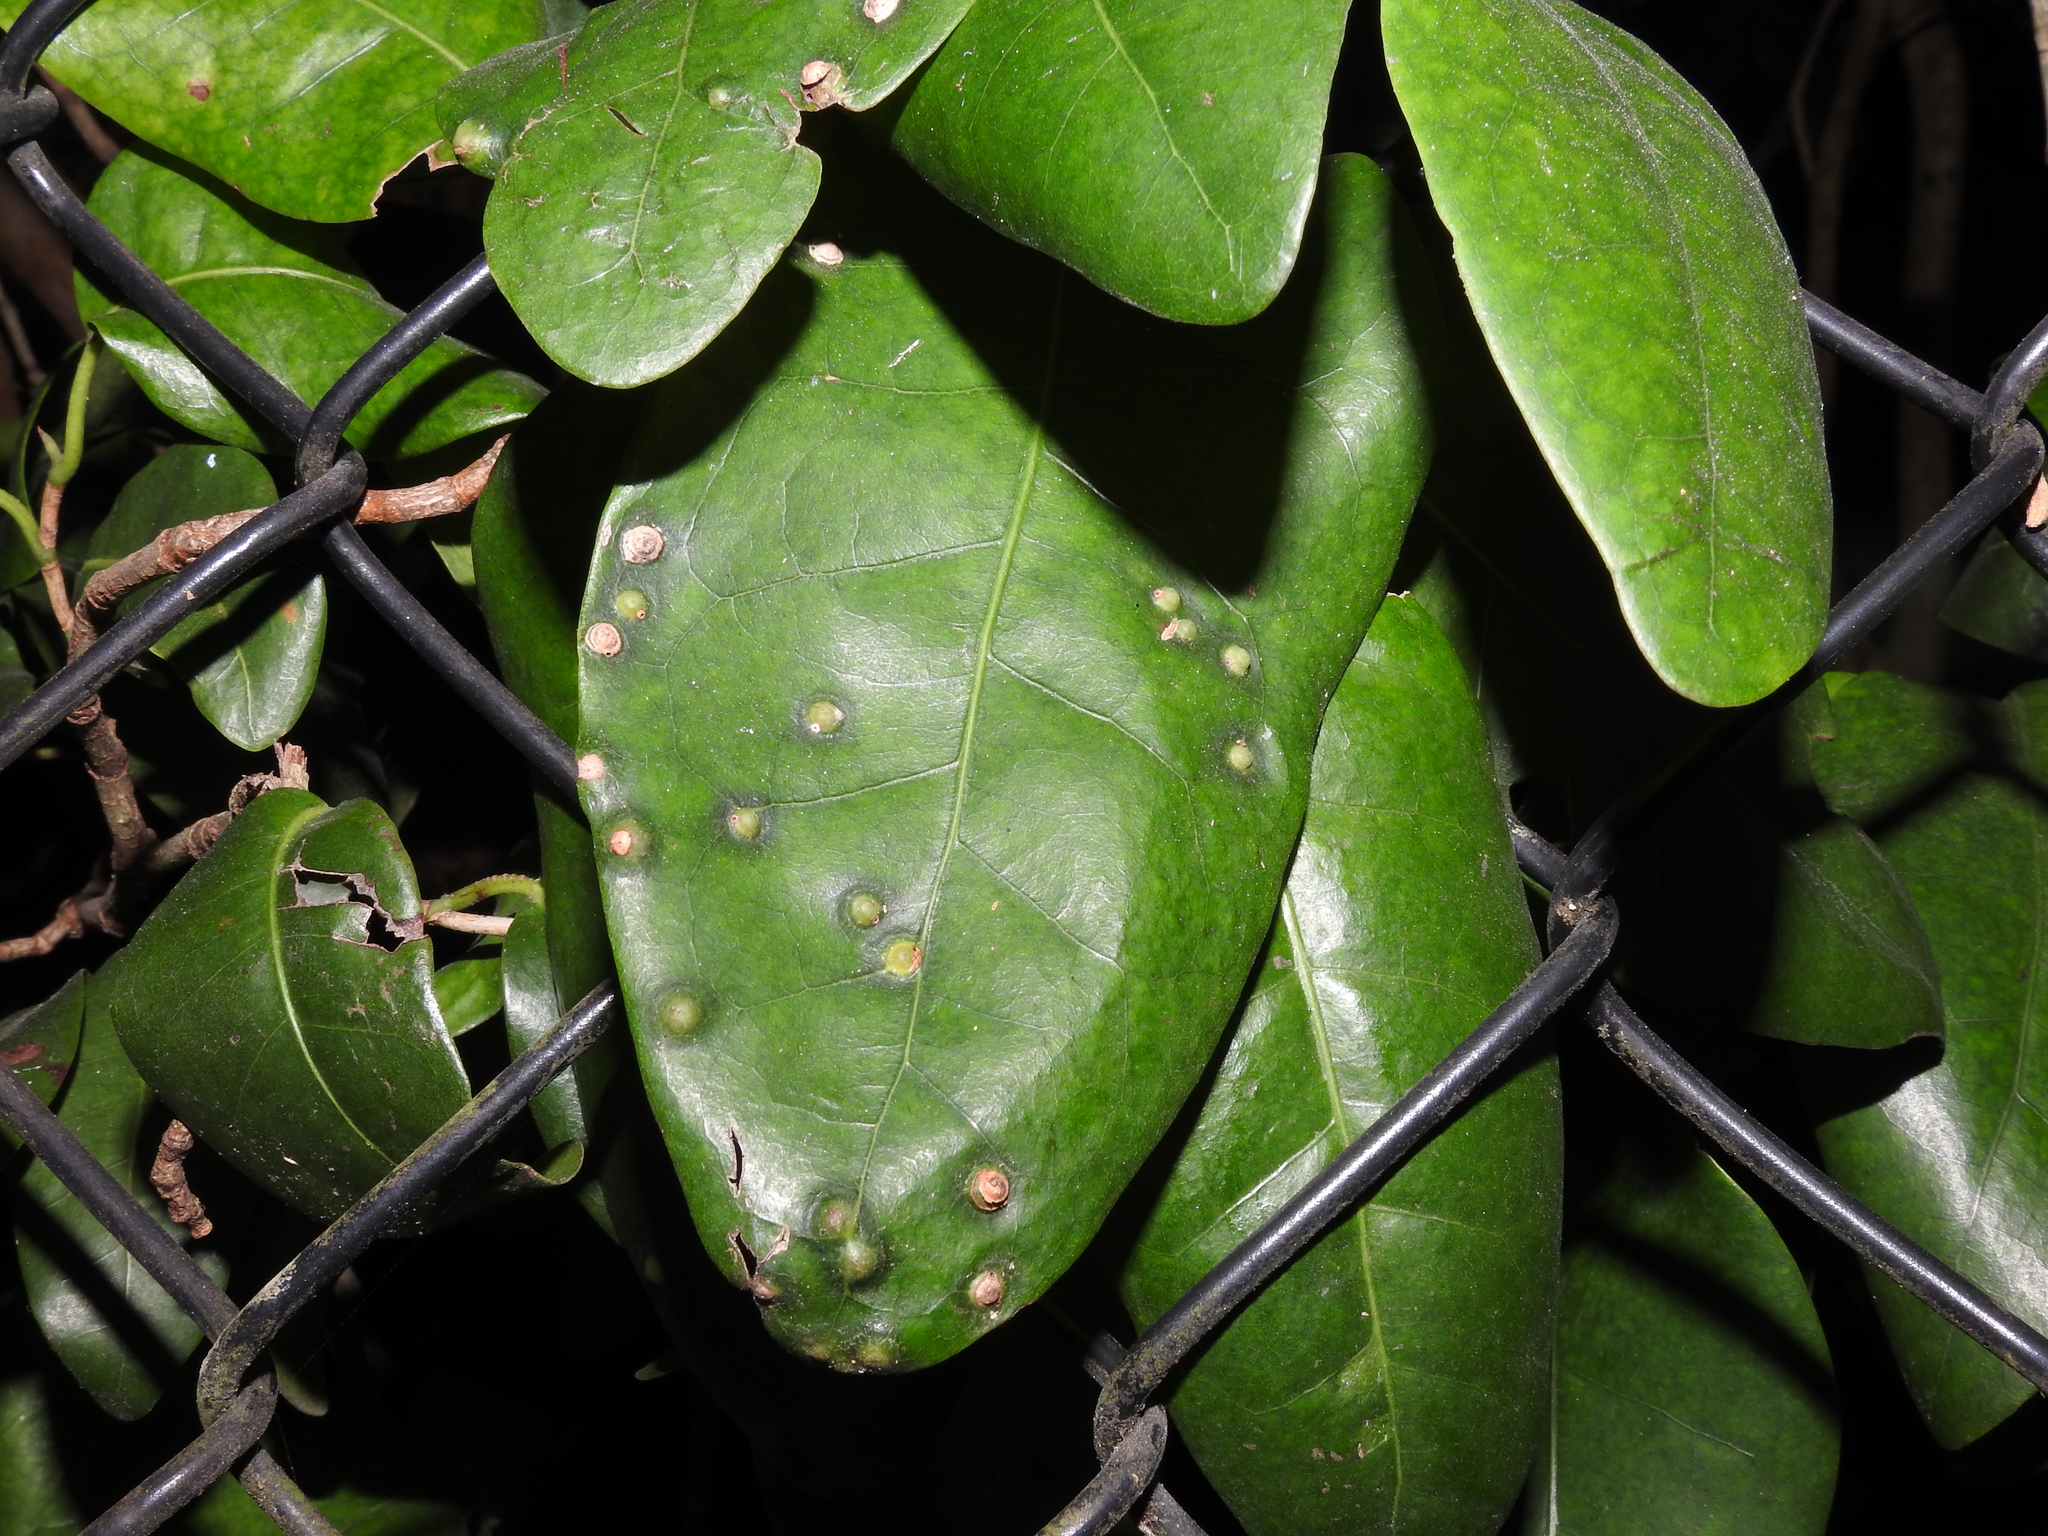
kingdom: Animalia
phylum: Arthropoda
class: Insecta
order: Diptera
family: Cecidomyiidae
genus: Ctenodactylomyia
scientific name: Ctenodactylomyia watsoni
